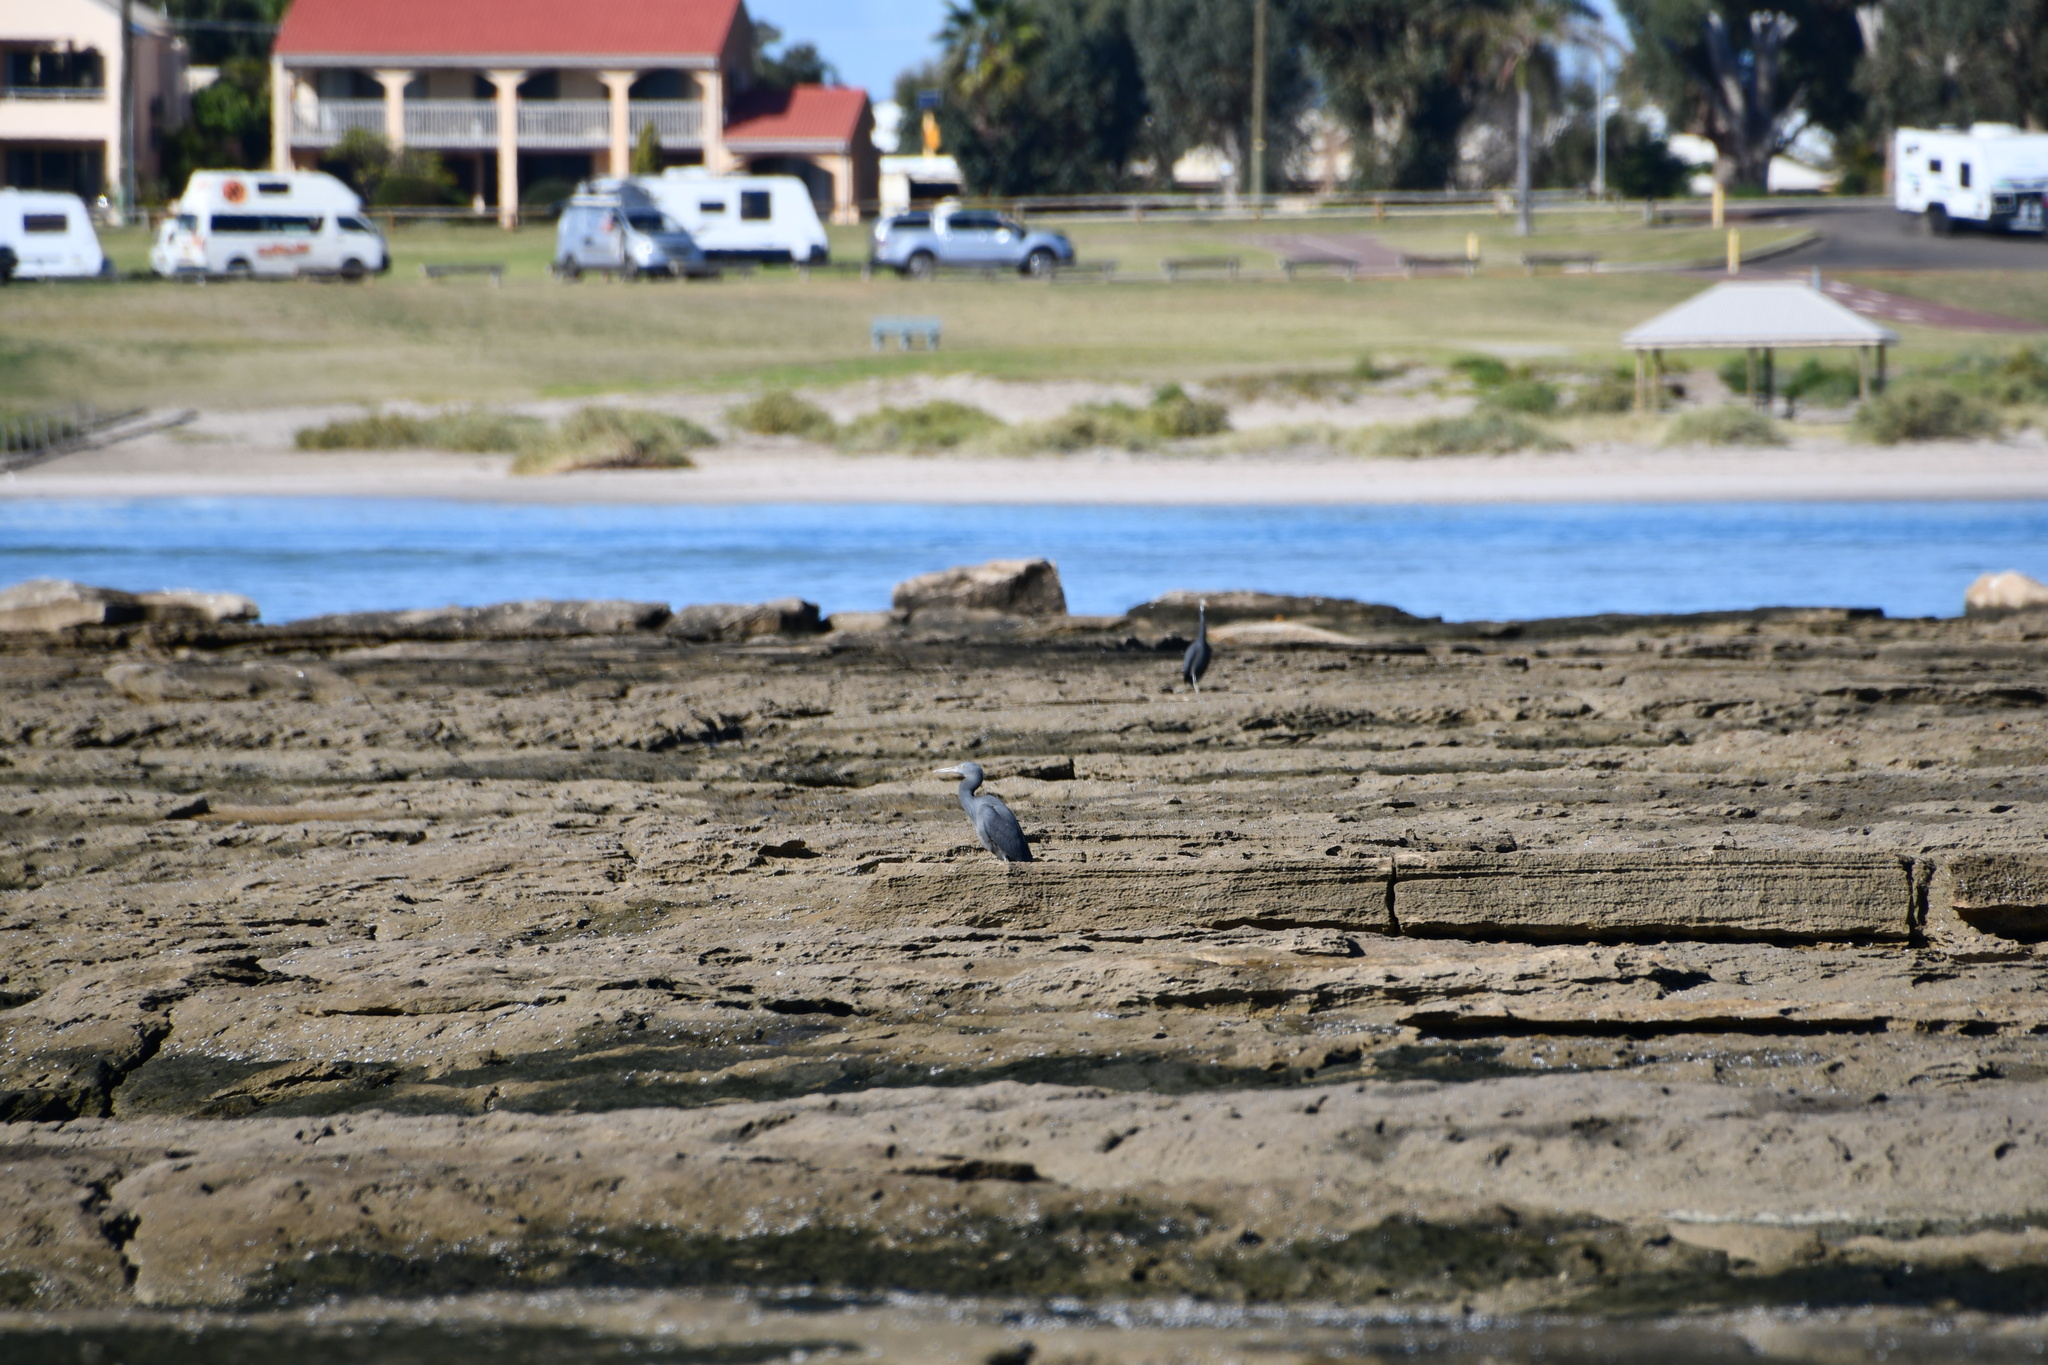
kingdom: Animalia
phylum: Chordata
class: Aves
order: Pelecaniformes
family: Ardeidae
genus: Egretta
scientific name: Egretta sacra
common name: Pacific reef heron
